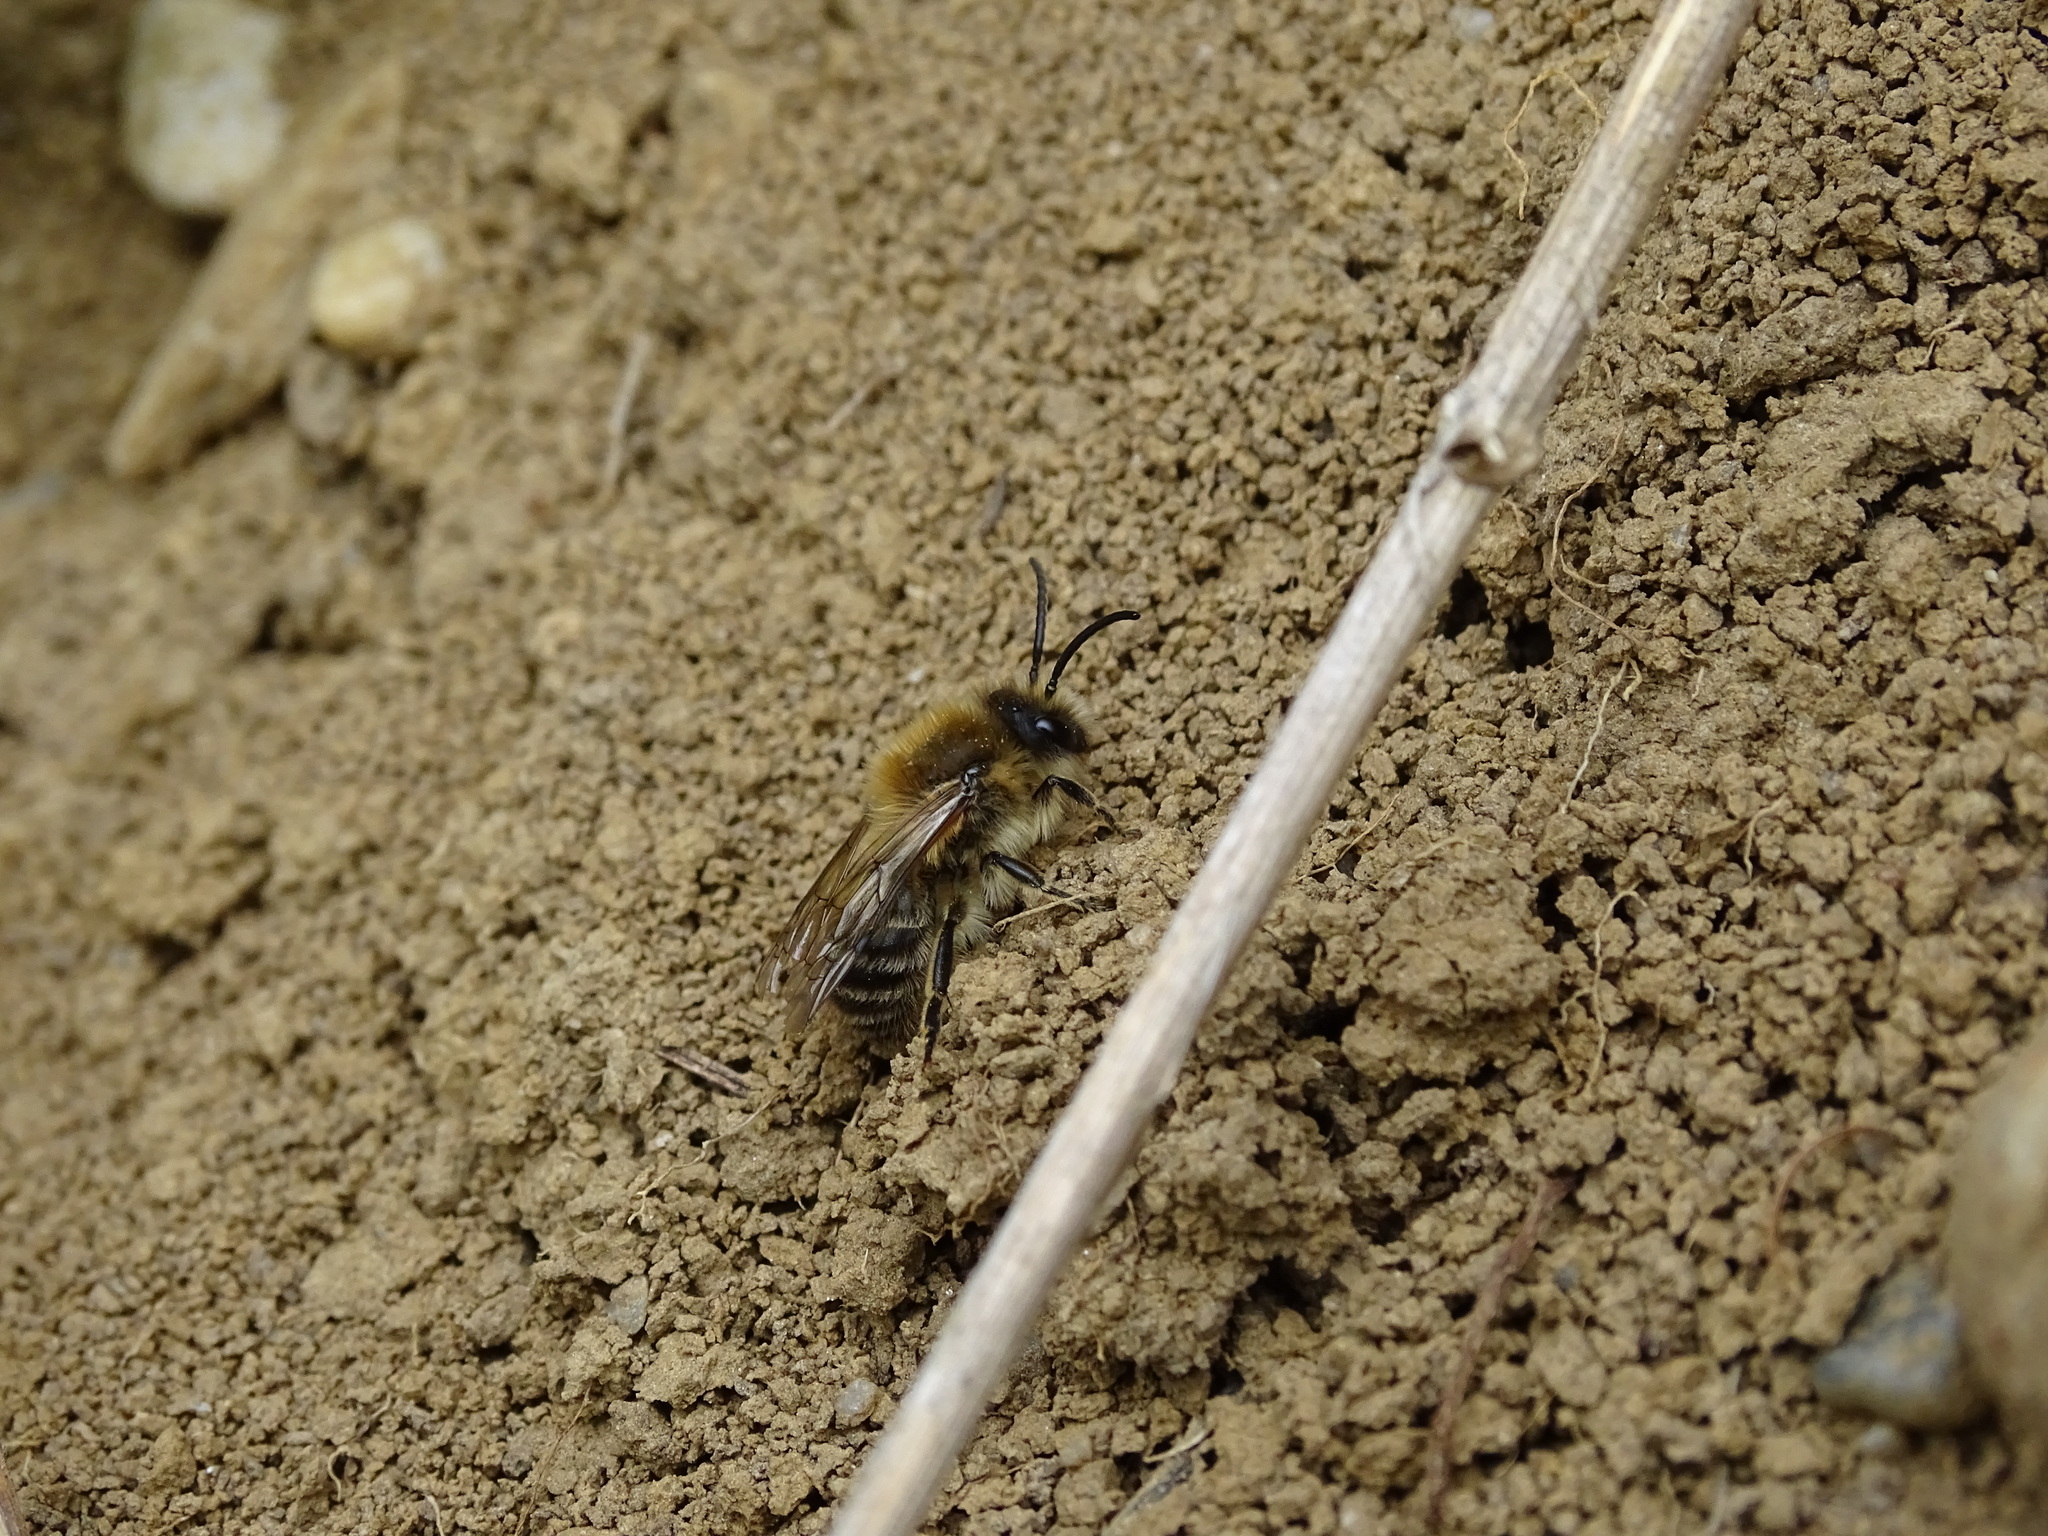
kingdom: Animalia
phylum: Arthropoda
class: Insecta
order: Hymenoptera
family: Colletidae
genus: Colletes
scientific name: Colletes cunicularius
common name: Early colletes
